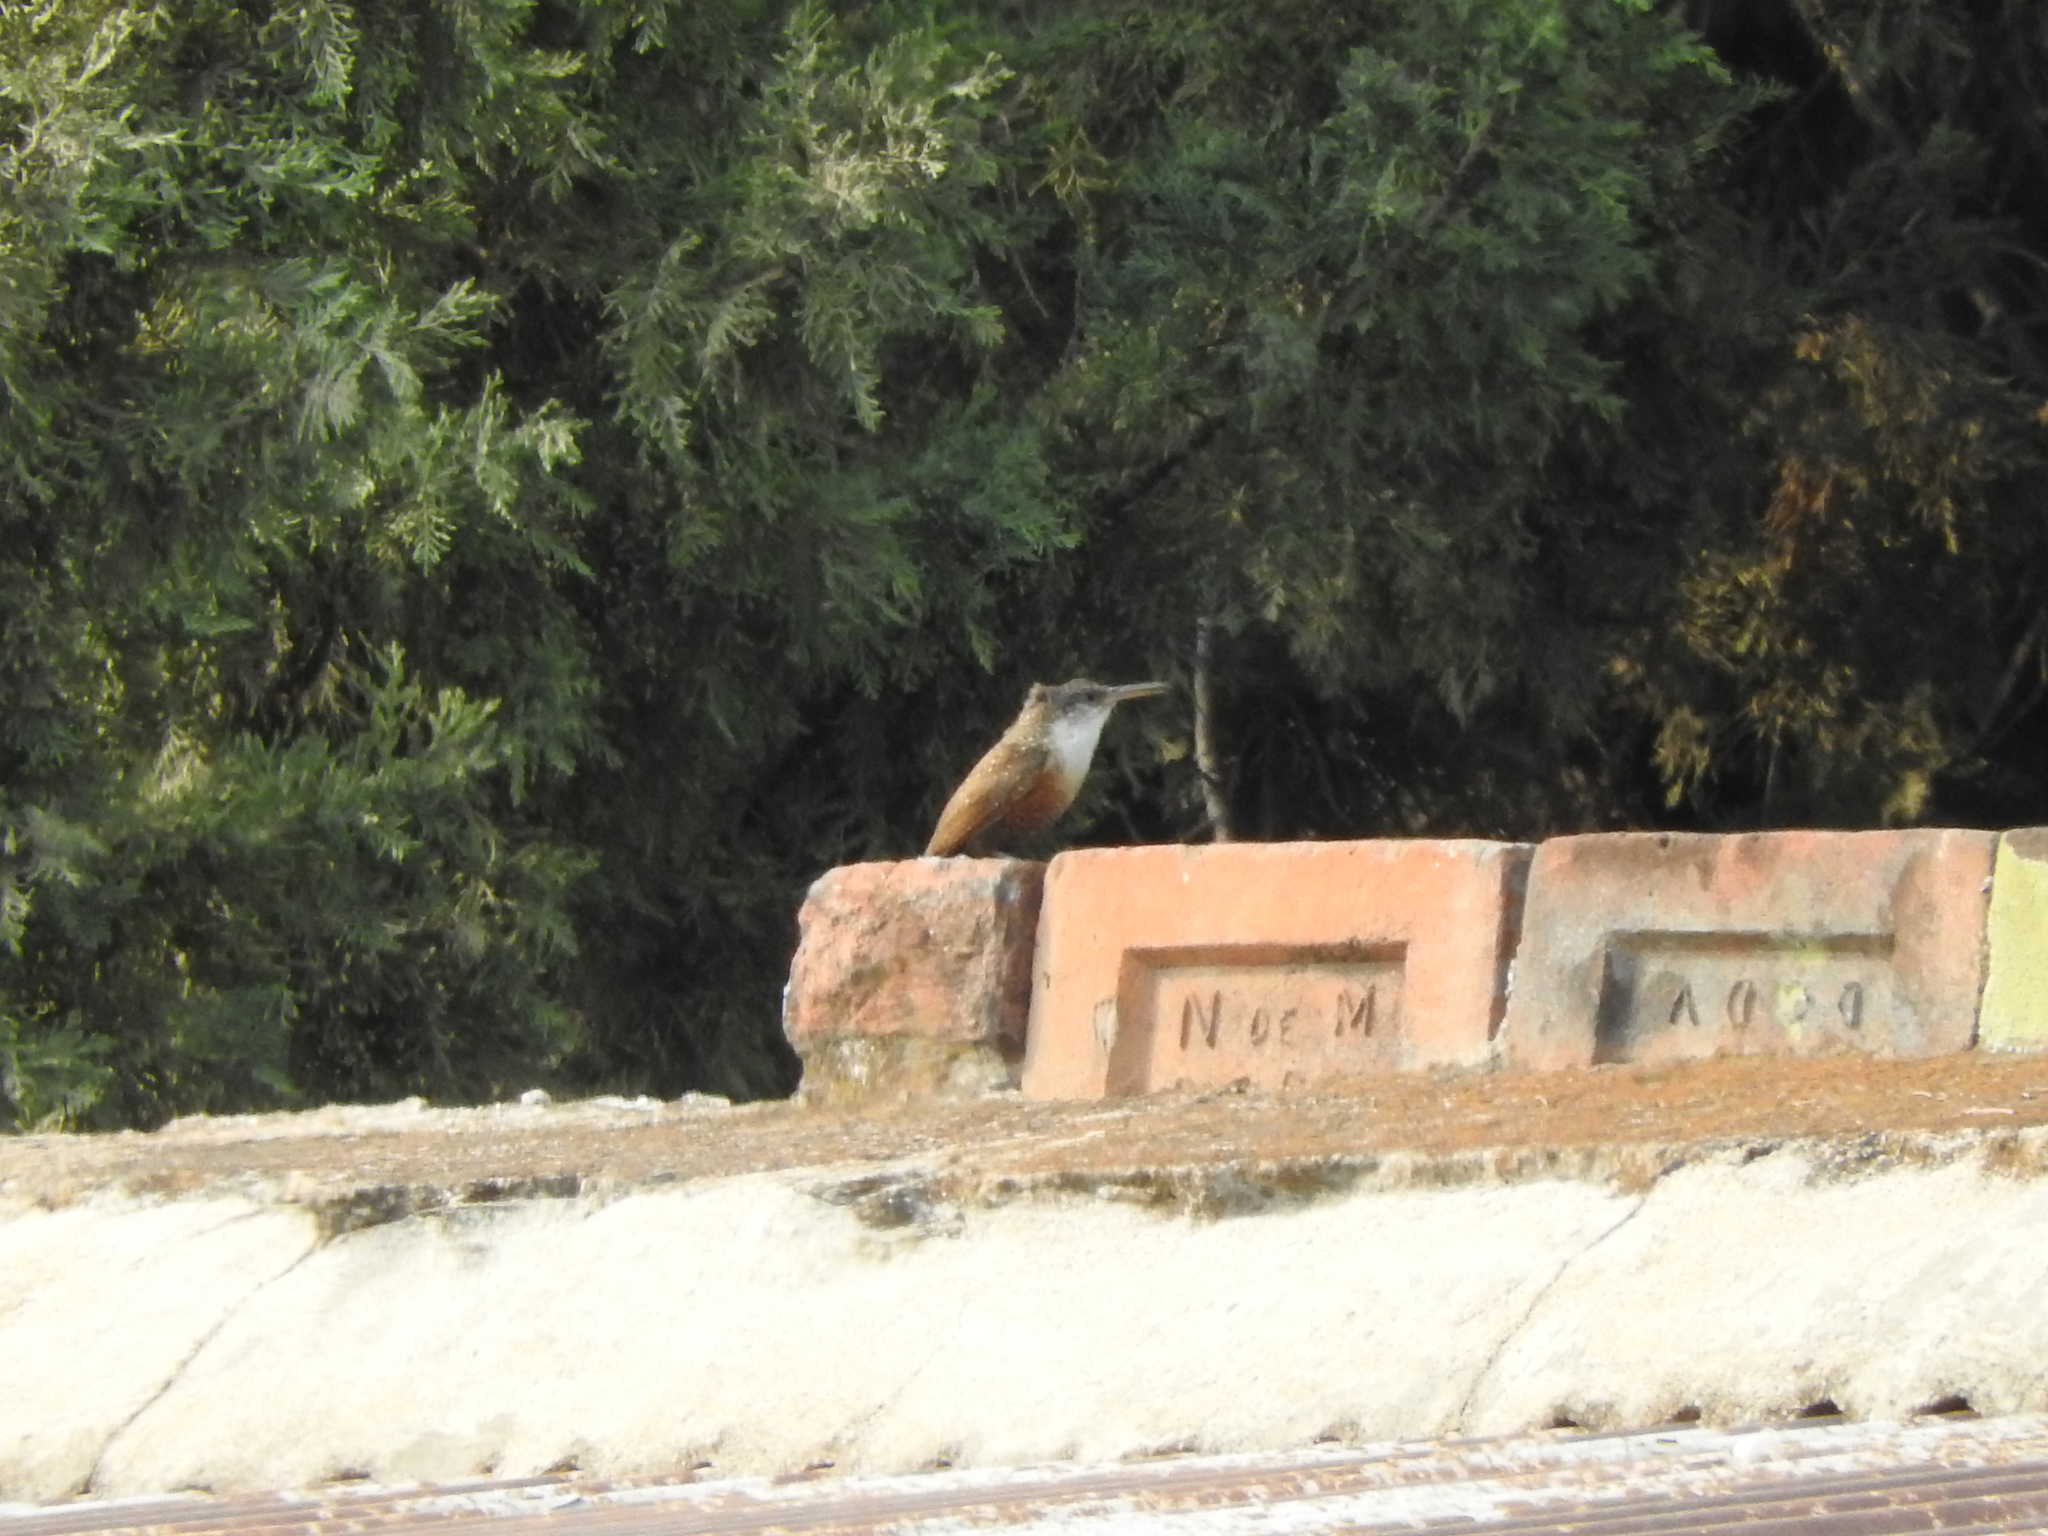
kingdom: Animalia
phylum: Chordata
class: Aves
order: Passeriformes
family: Troglodytidae
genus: Catherpes
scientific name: Catherpes mexicanus
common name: Canyon wren
